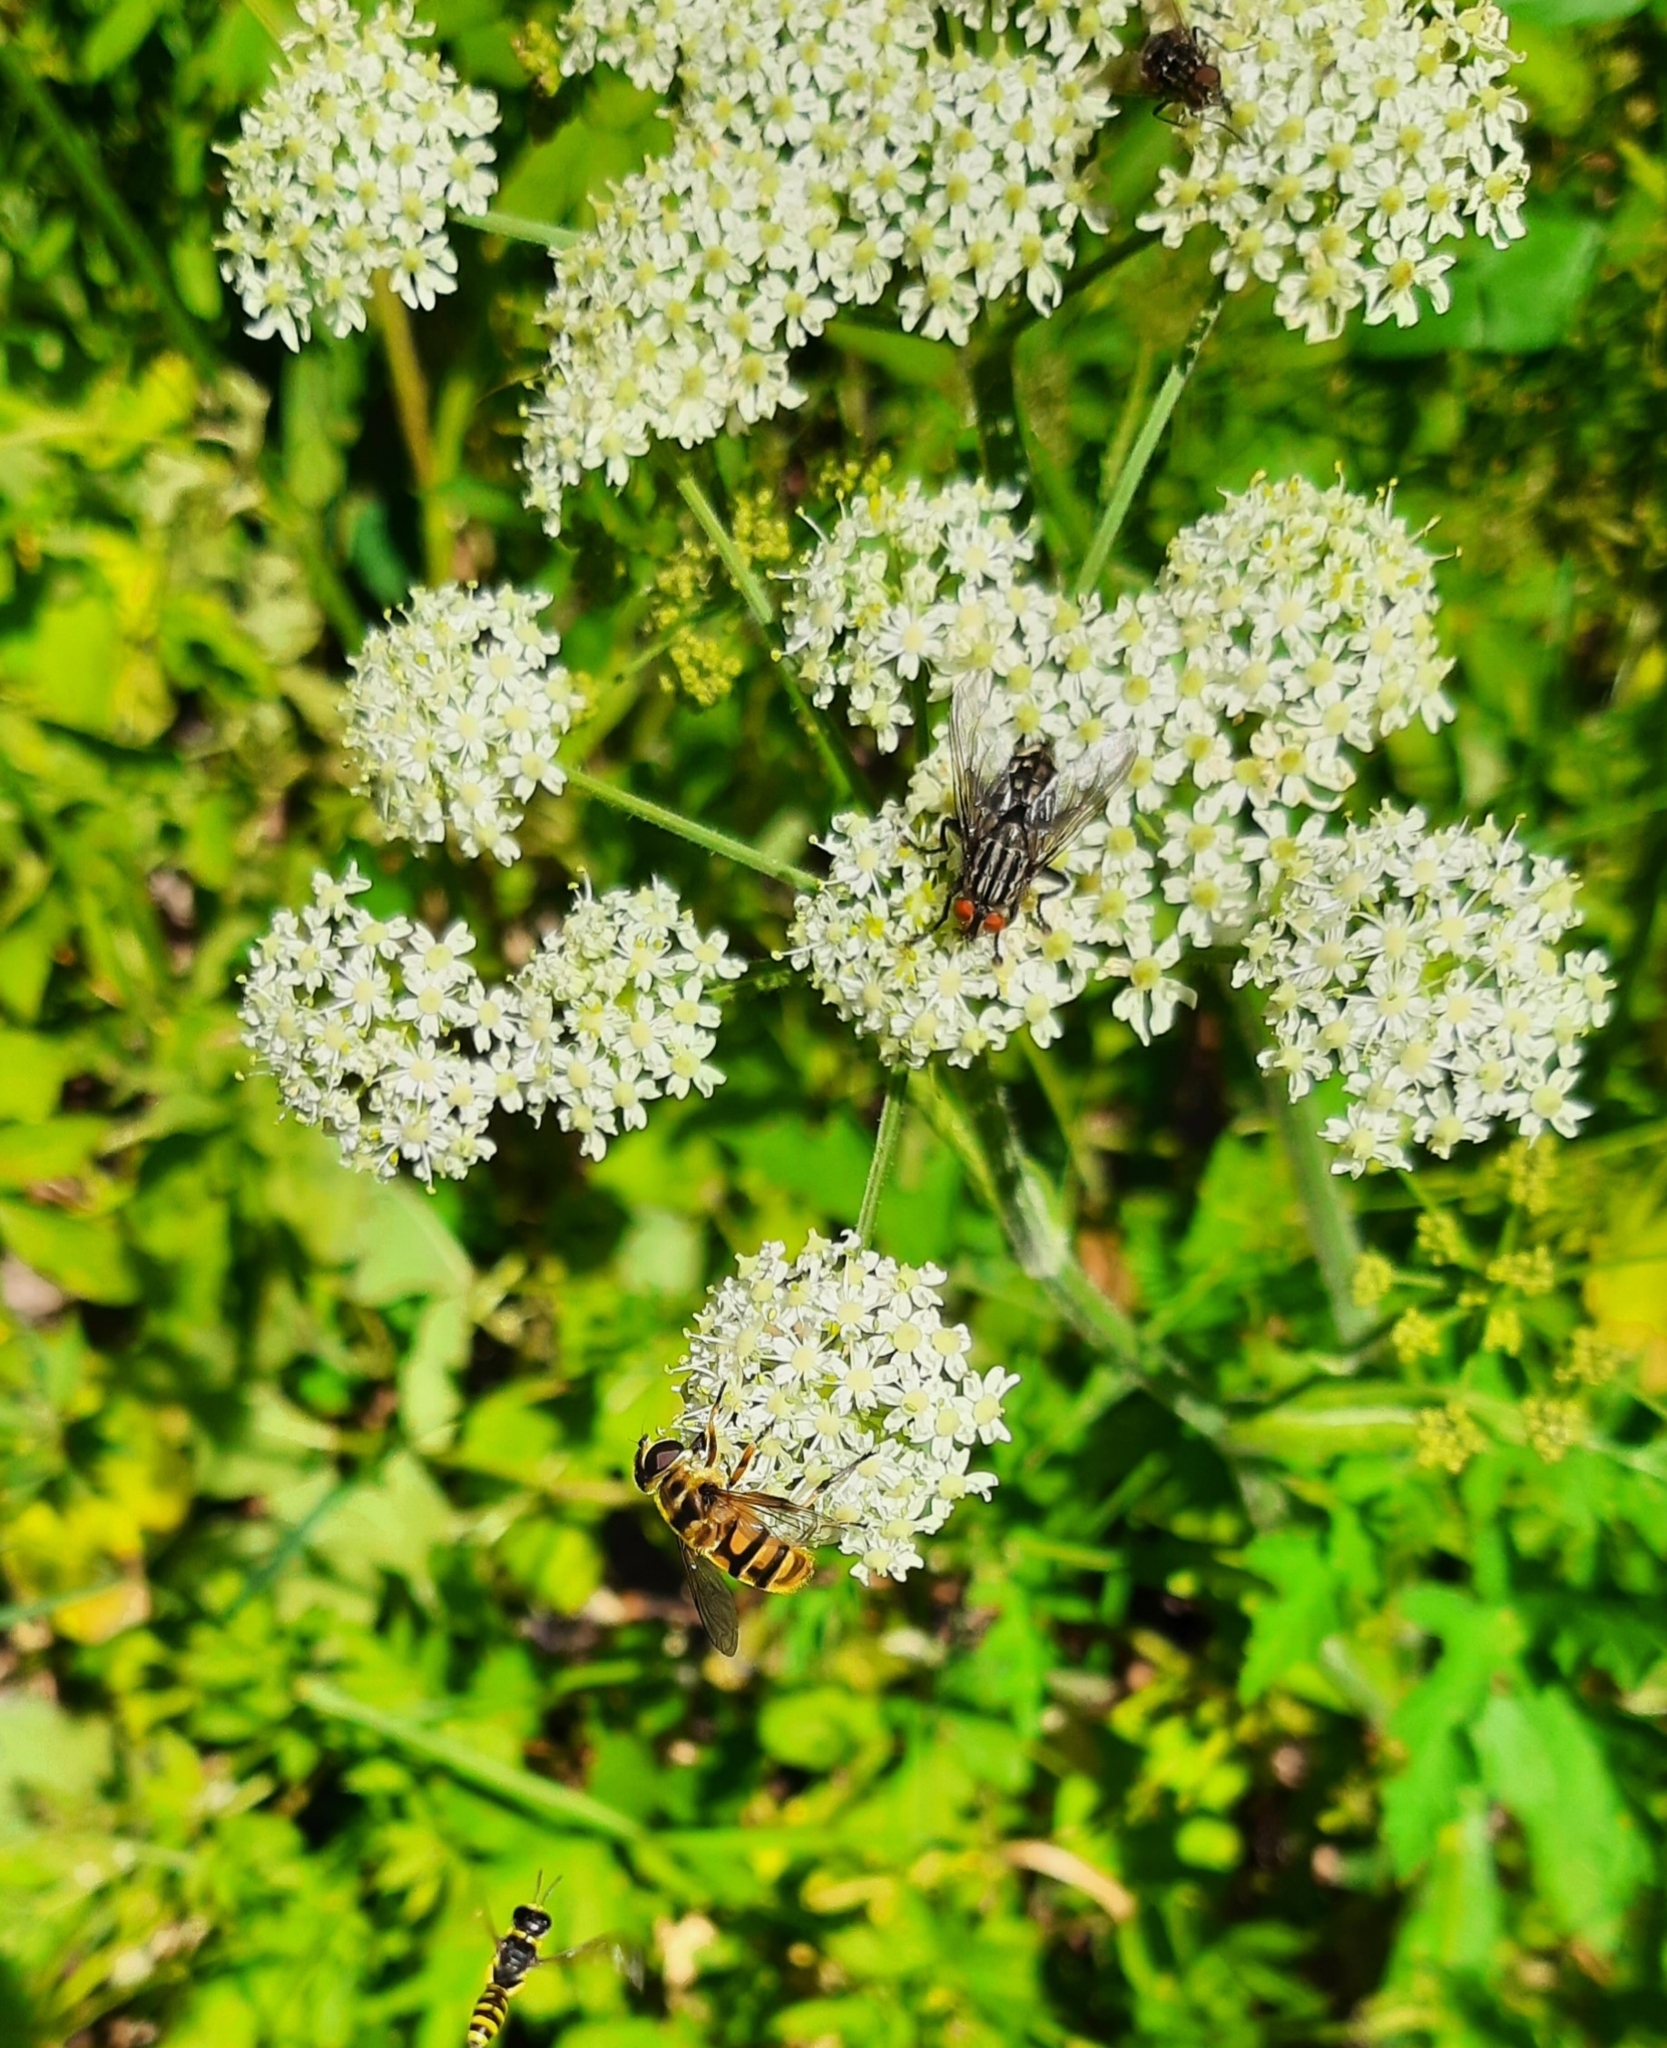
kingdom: Plantae
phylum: Tracheophyta
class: Magnoliopsida
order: Apiales
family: Apiaceae
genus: Heracleum
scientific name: Heracleum sphondylium
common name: Hogweed
